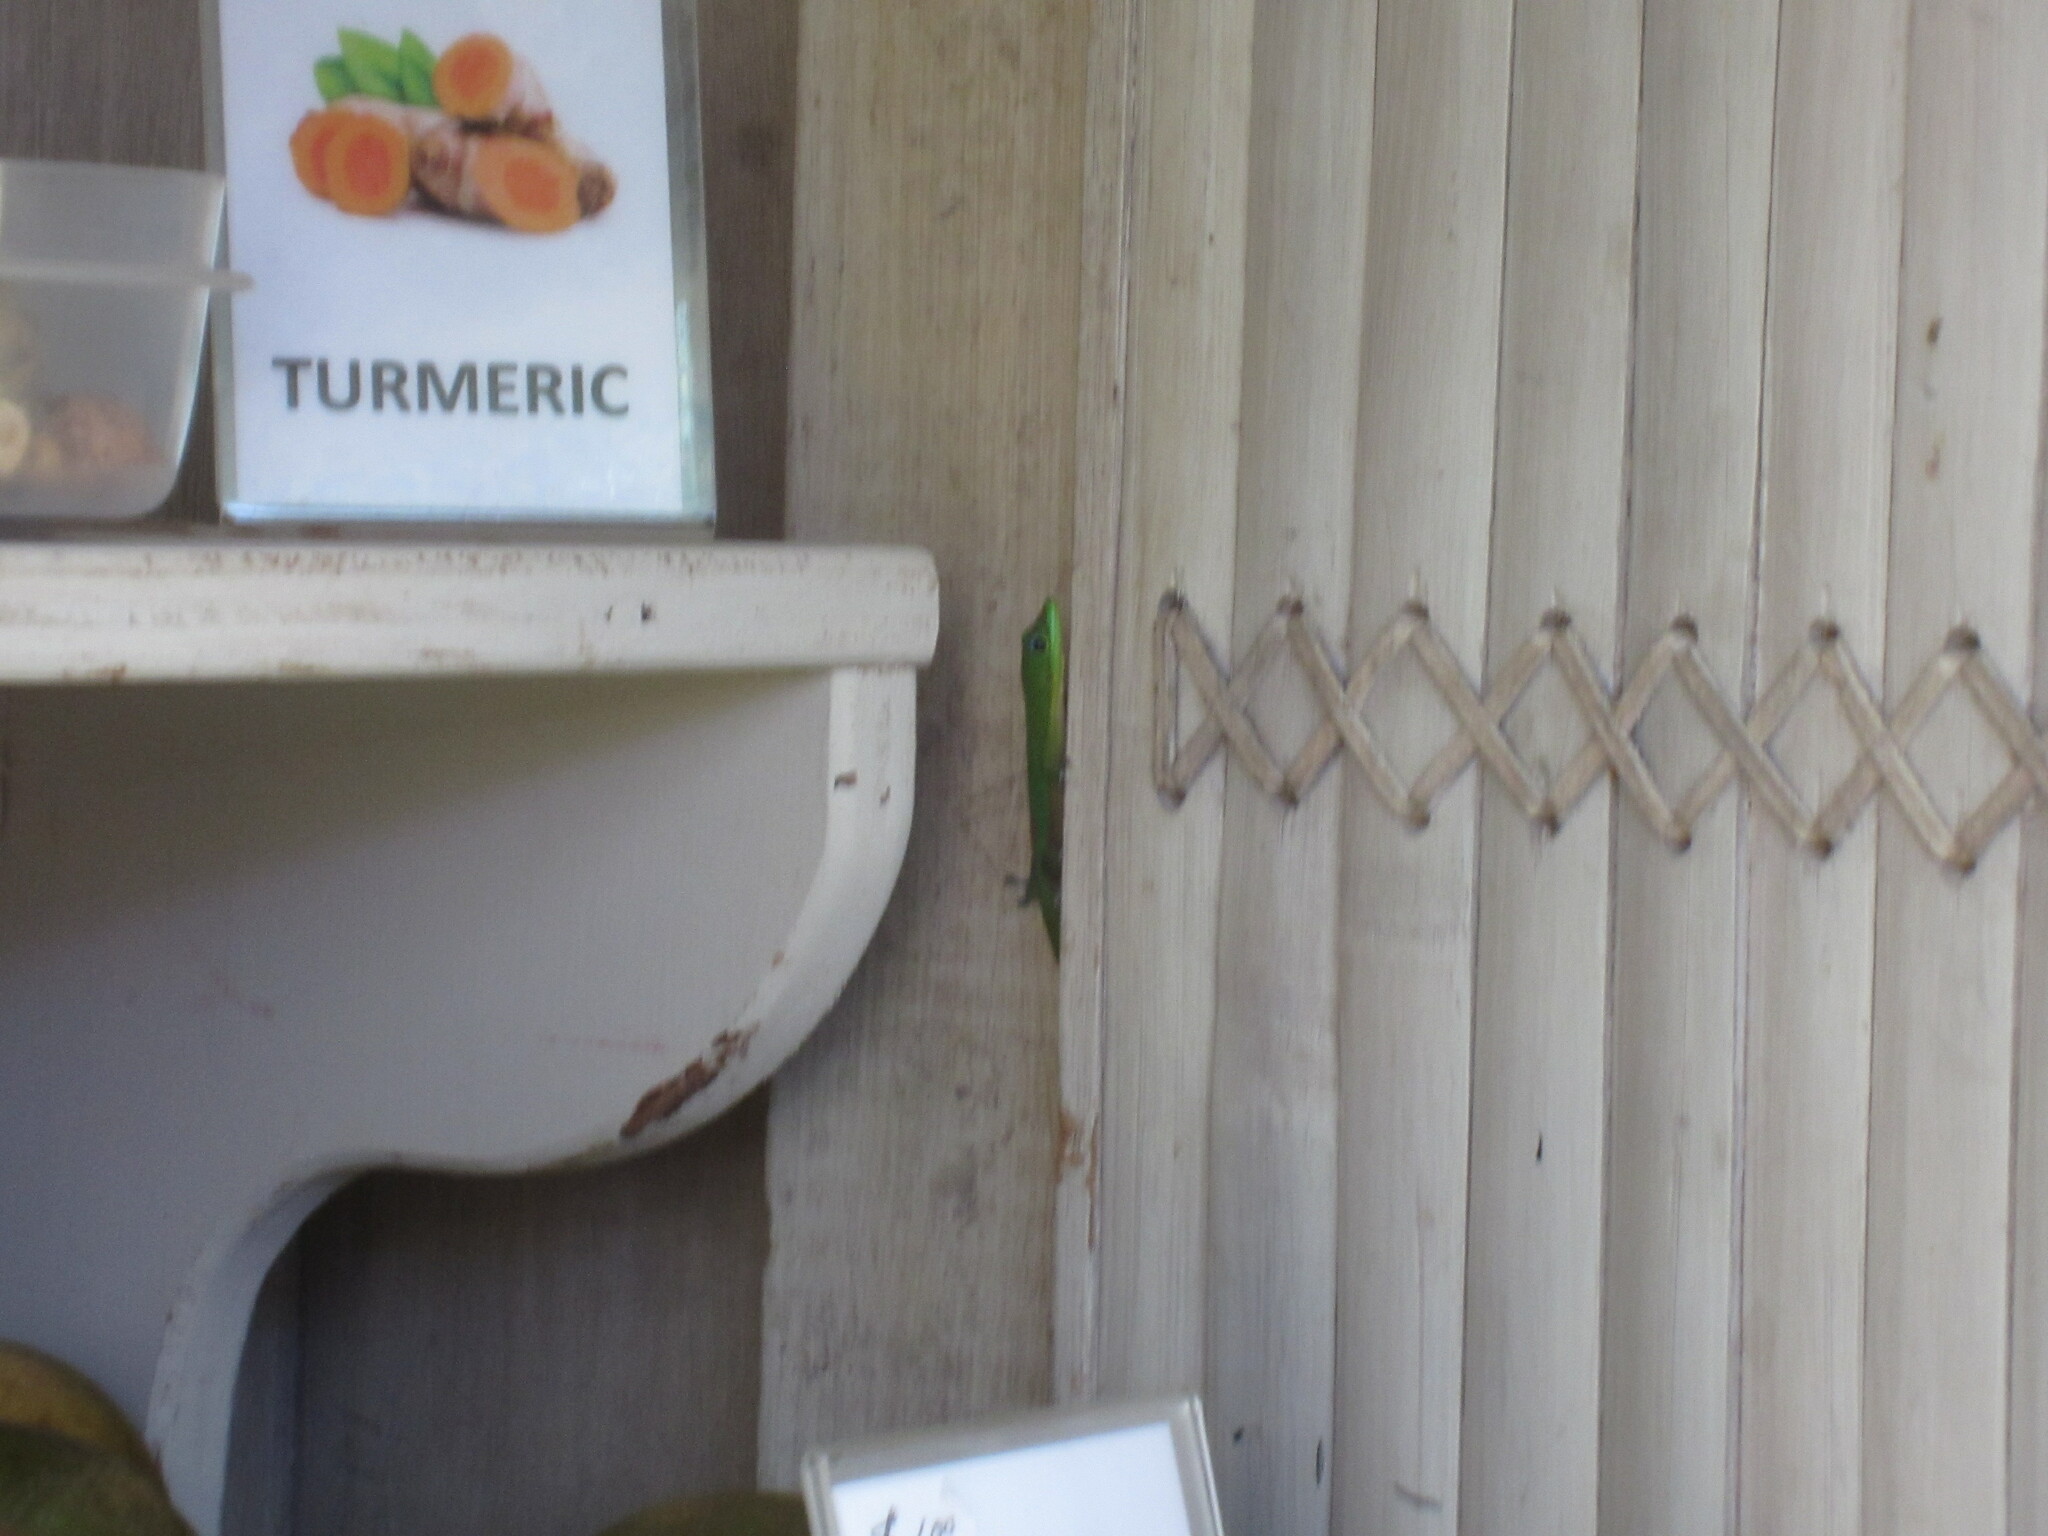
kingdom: Animalia
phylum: Chordata
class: Squamata
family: Gekkonidae
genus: Phelsuma
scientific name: Phelsuma laticauda
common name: Gold dust day gecko
